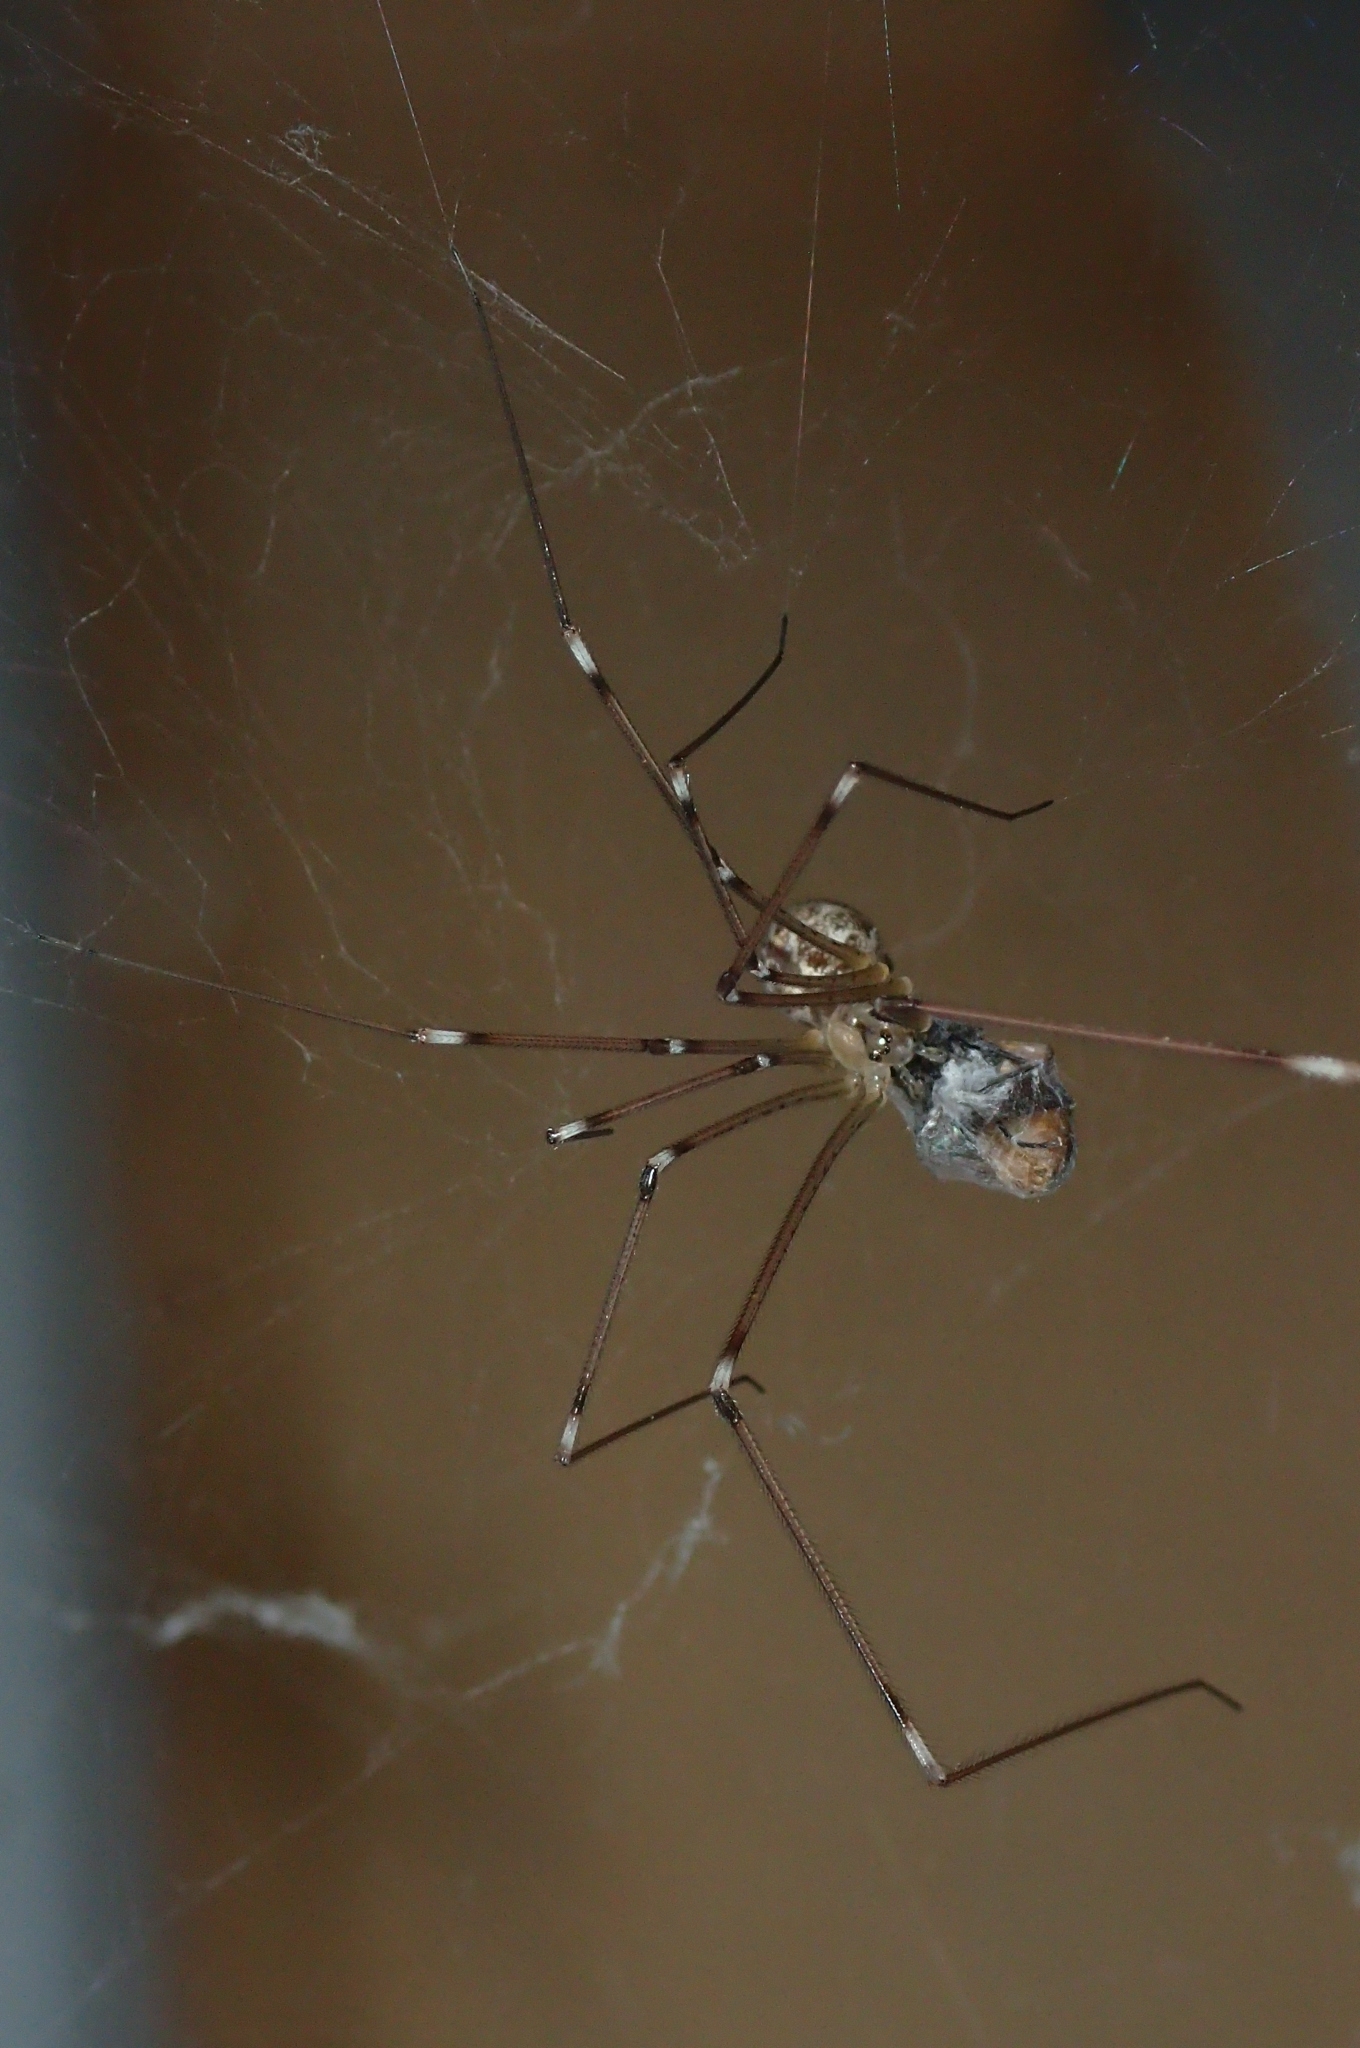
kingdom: Animalia
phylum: Arthropoda
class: Arachnida
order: Araneae
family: Pholcidae
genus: Holocnemus
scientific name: Holocnemus pluchei
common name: Marbled cellar spider
